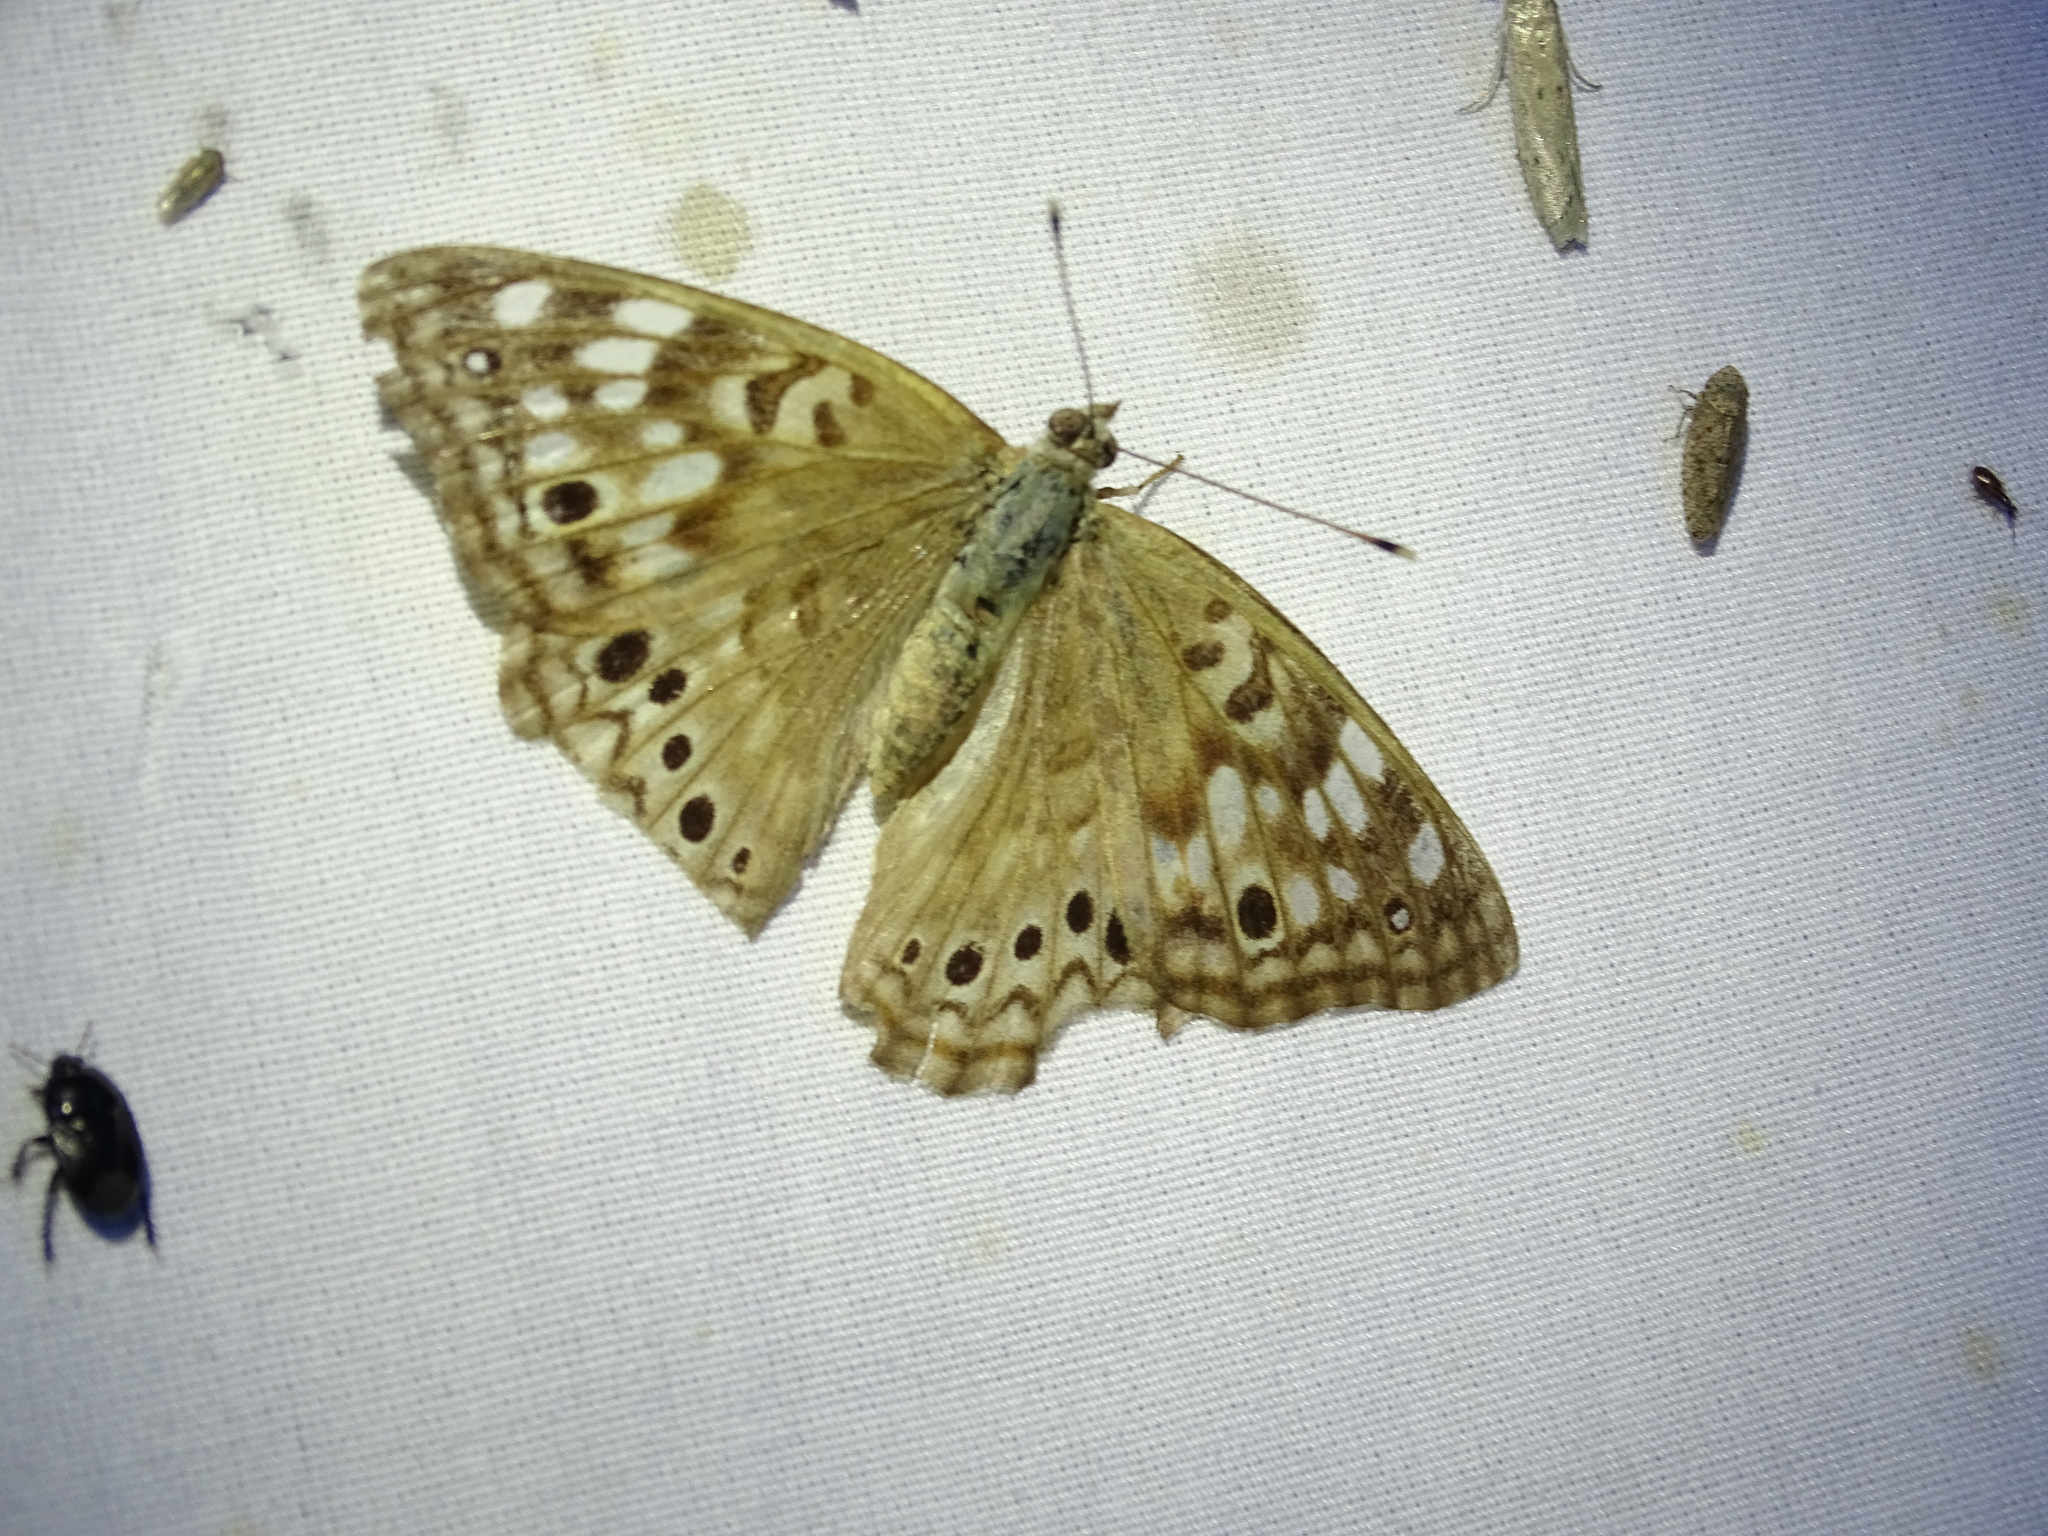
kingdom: Animalia
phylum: Arthropoda
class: Insecta
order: Lepidoptera
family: Nymphalidae
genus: Asterocampa
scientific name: Asterocampa celtis
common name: Hackberry emperor
